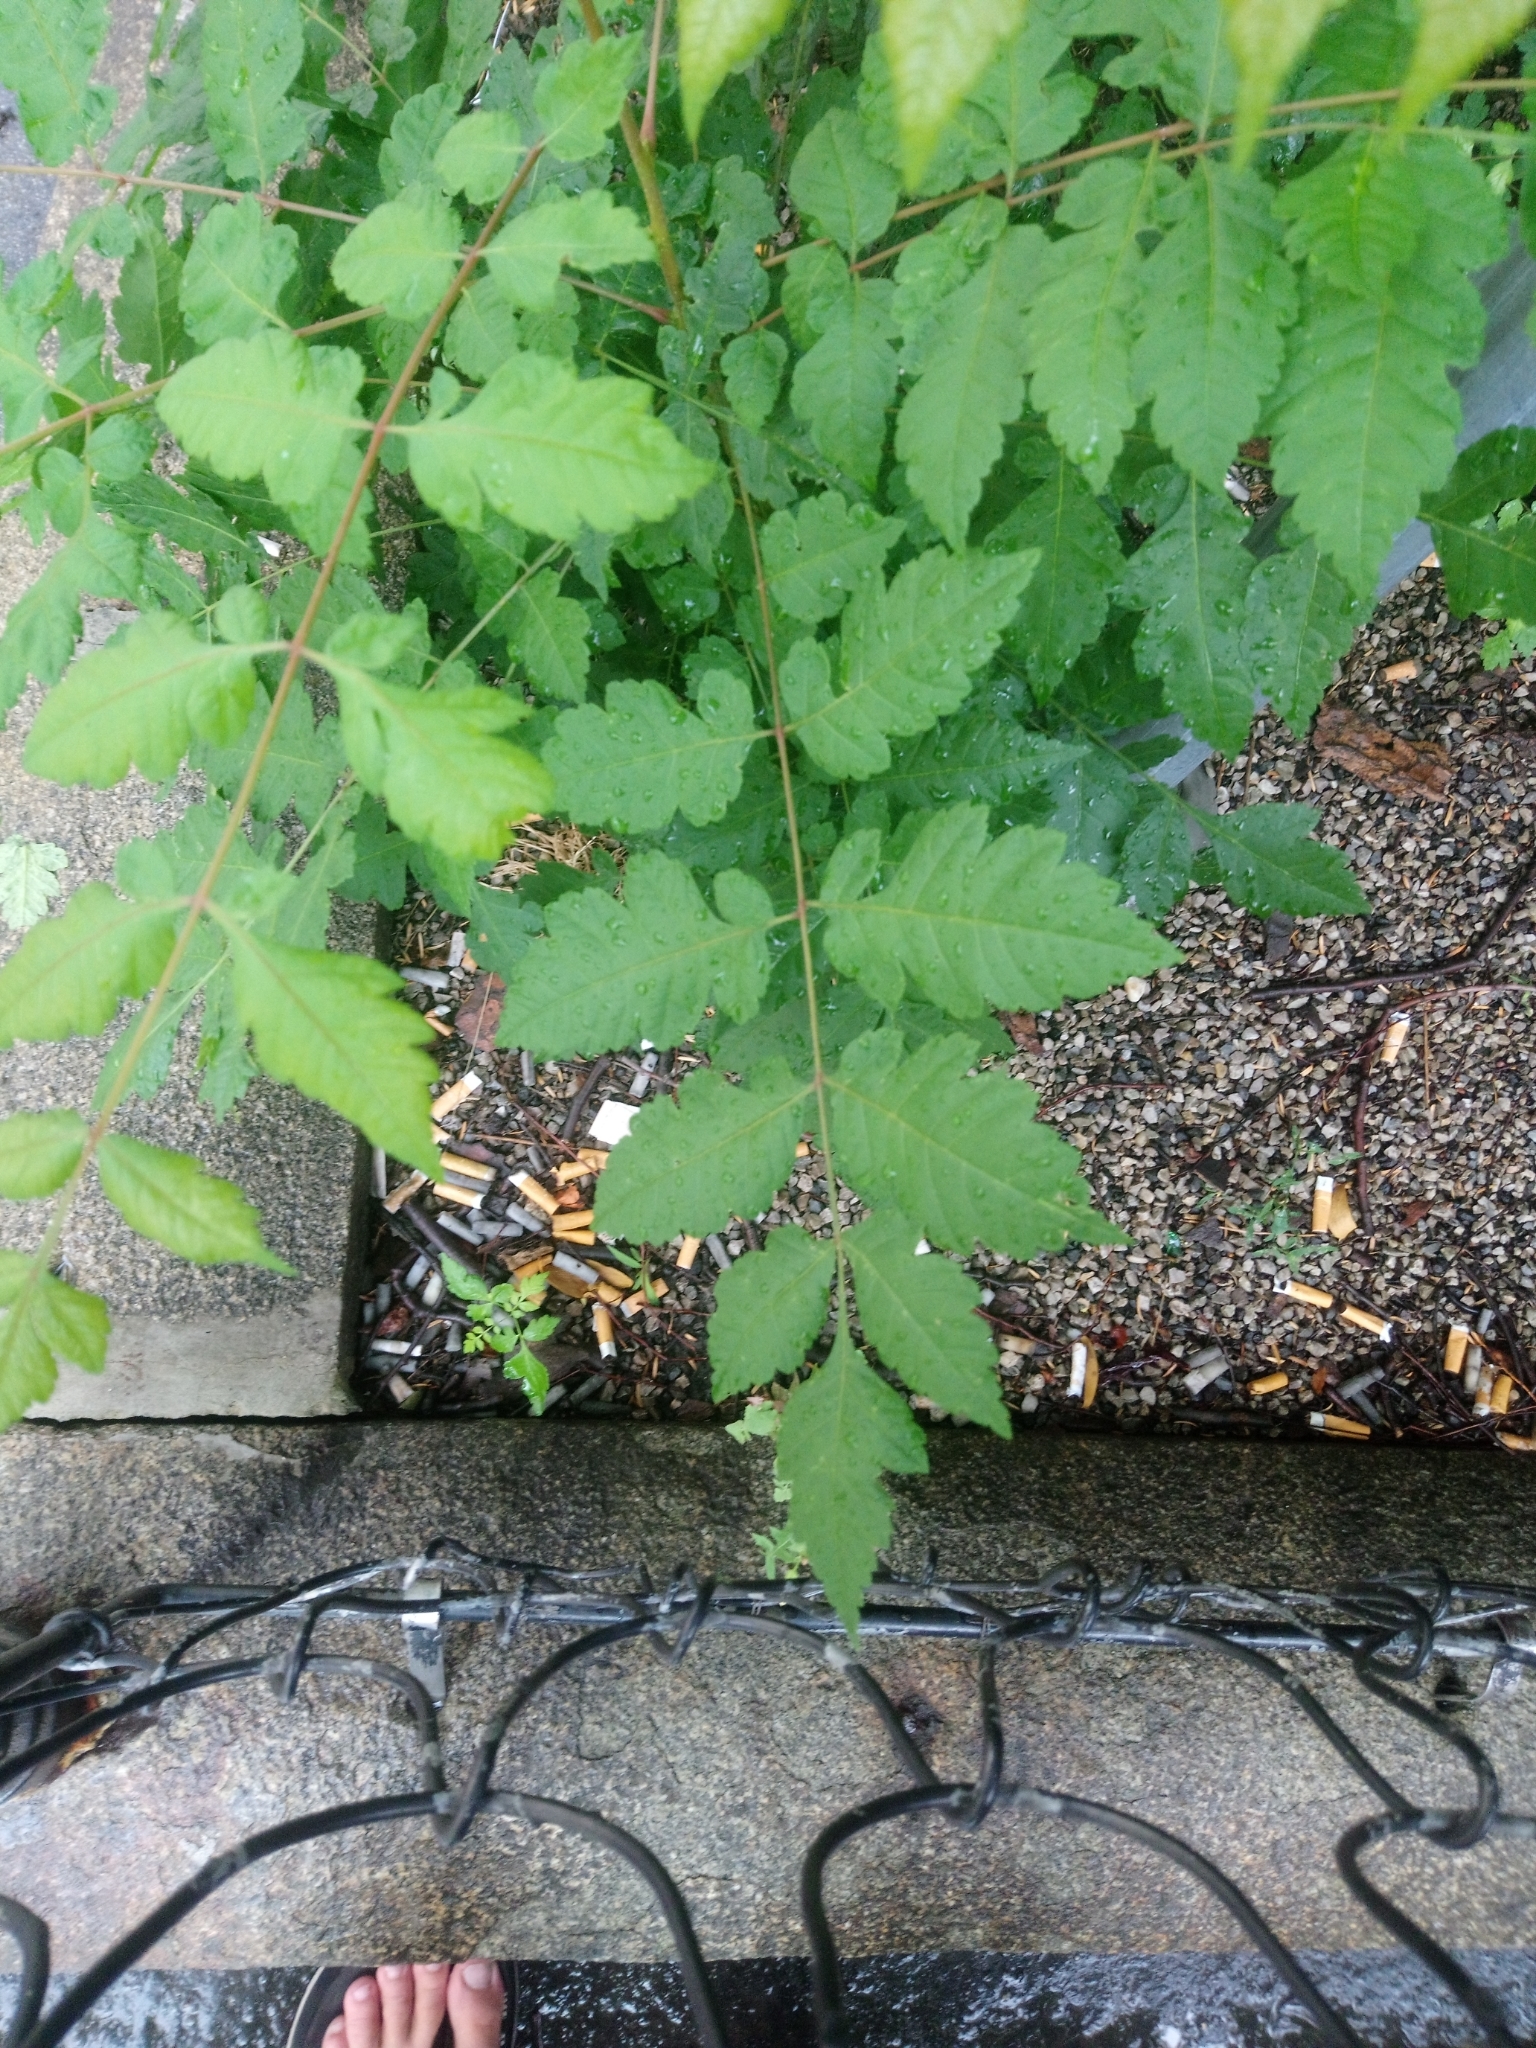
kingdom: Plantae
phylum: Tracheophyta
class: Magnoliopsida
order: Sapindales
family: Sapindaceae
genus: Koelreuteria
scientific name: Koelreuteria paniculata
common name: Pride-of-india
